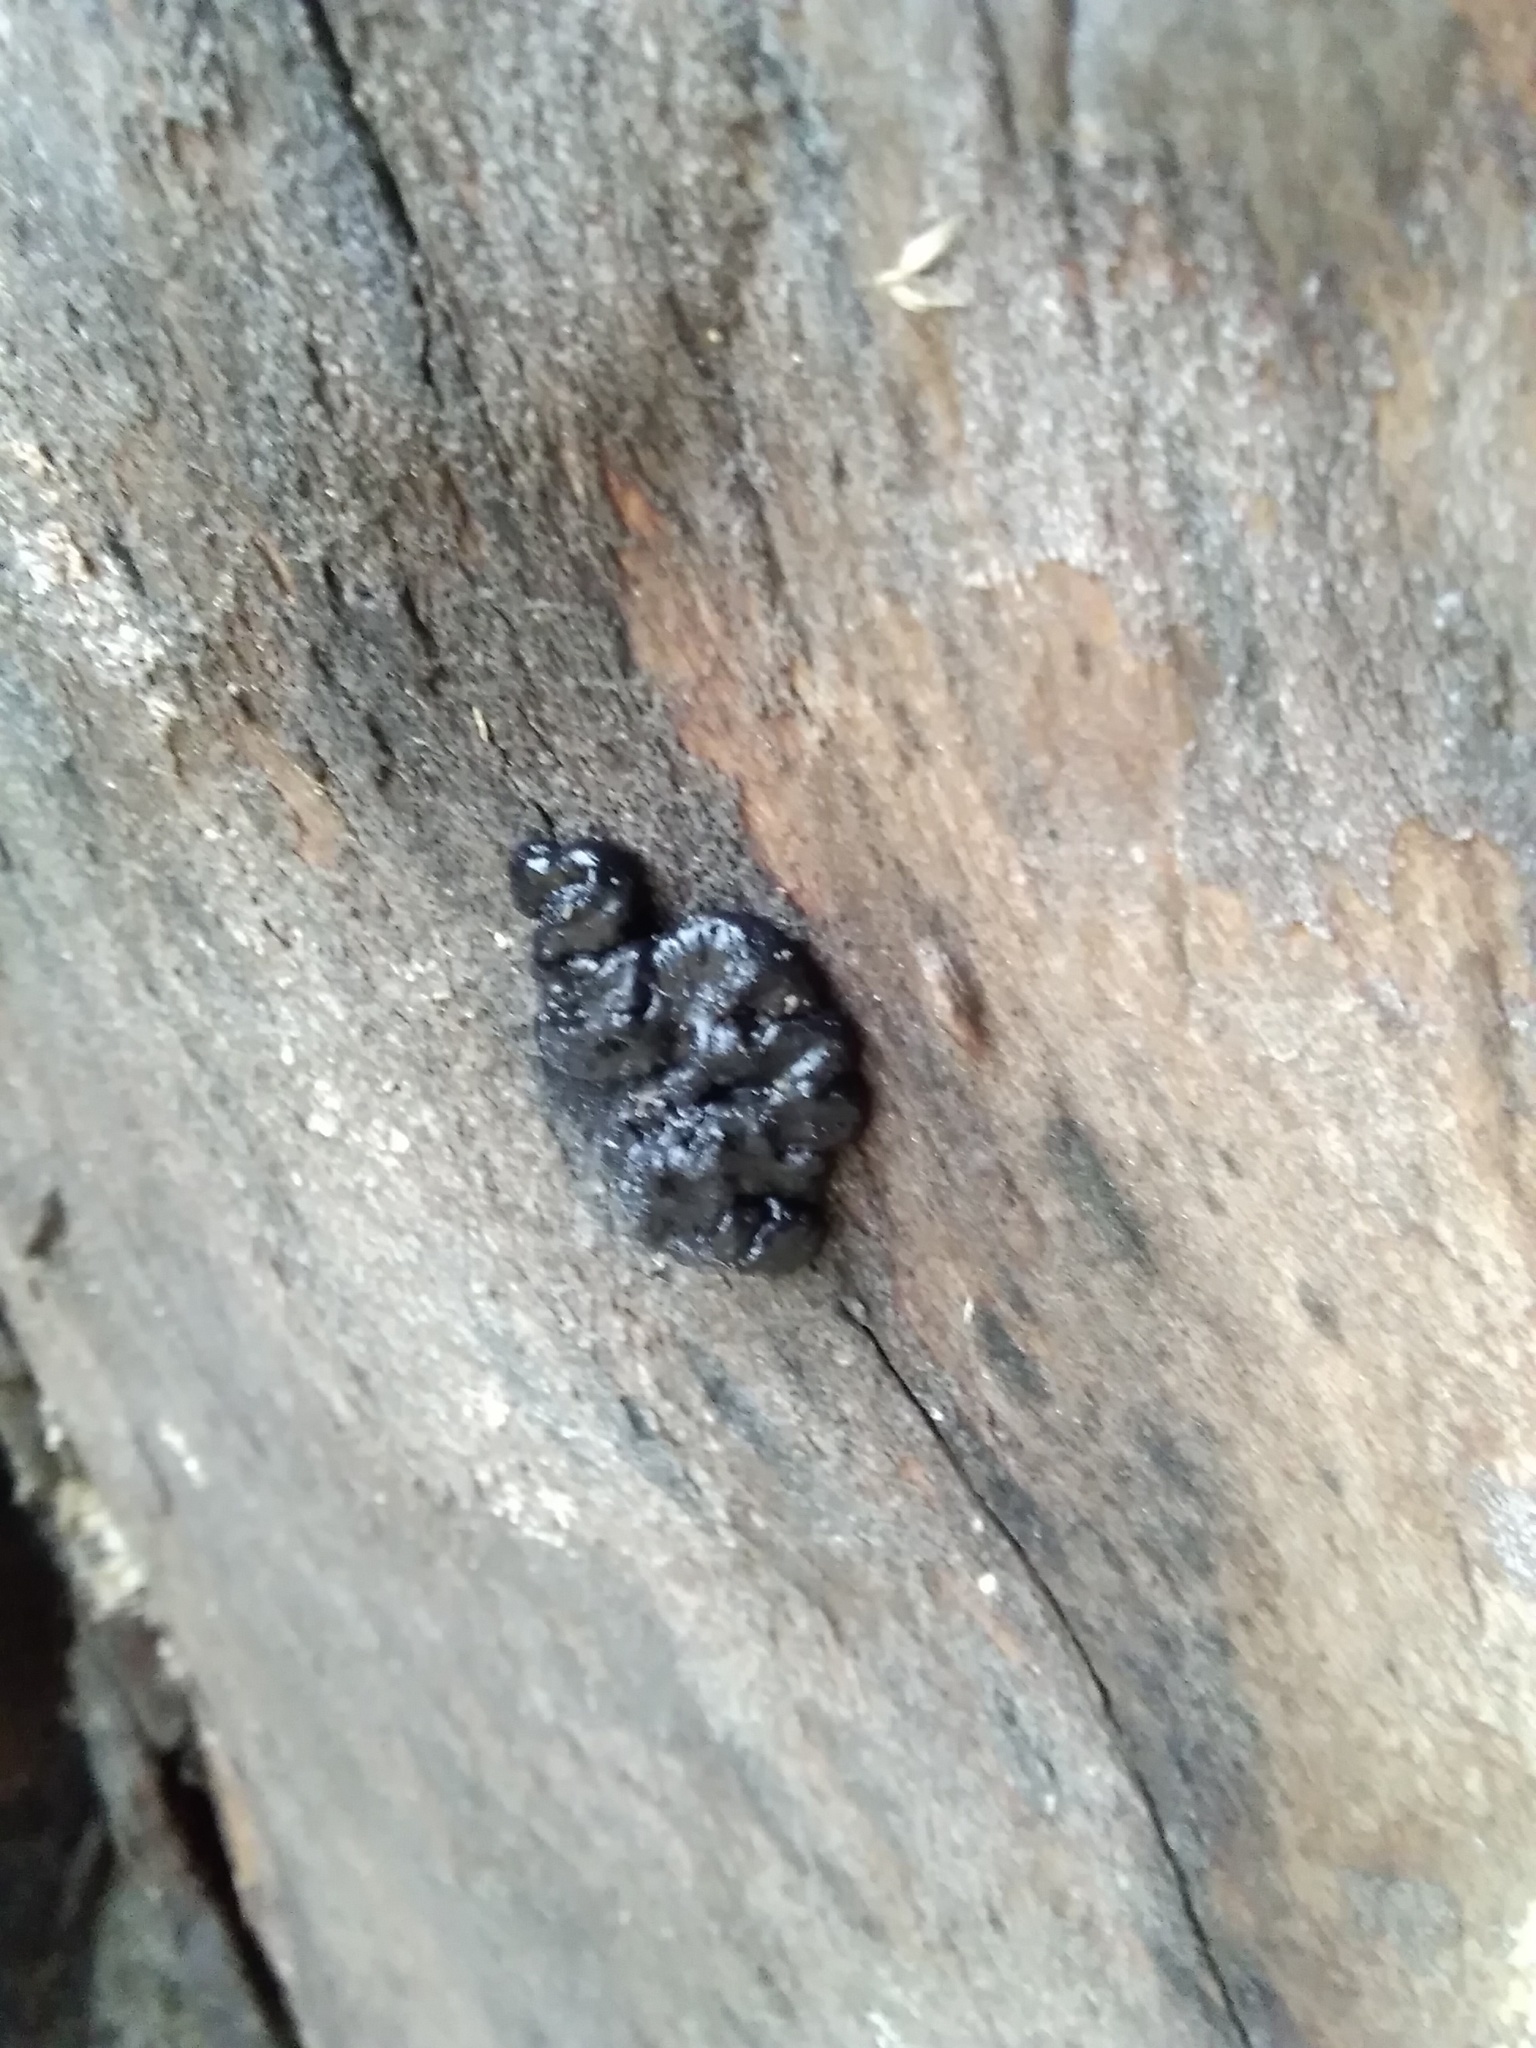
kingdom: Fungi
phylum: Basidiomycota
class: Agaricomycetes
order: Auriculariales
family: Auriculariaceae
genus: Exidia
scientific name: Exidia glandulosa
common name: Witches' butter
